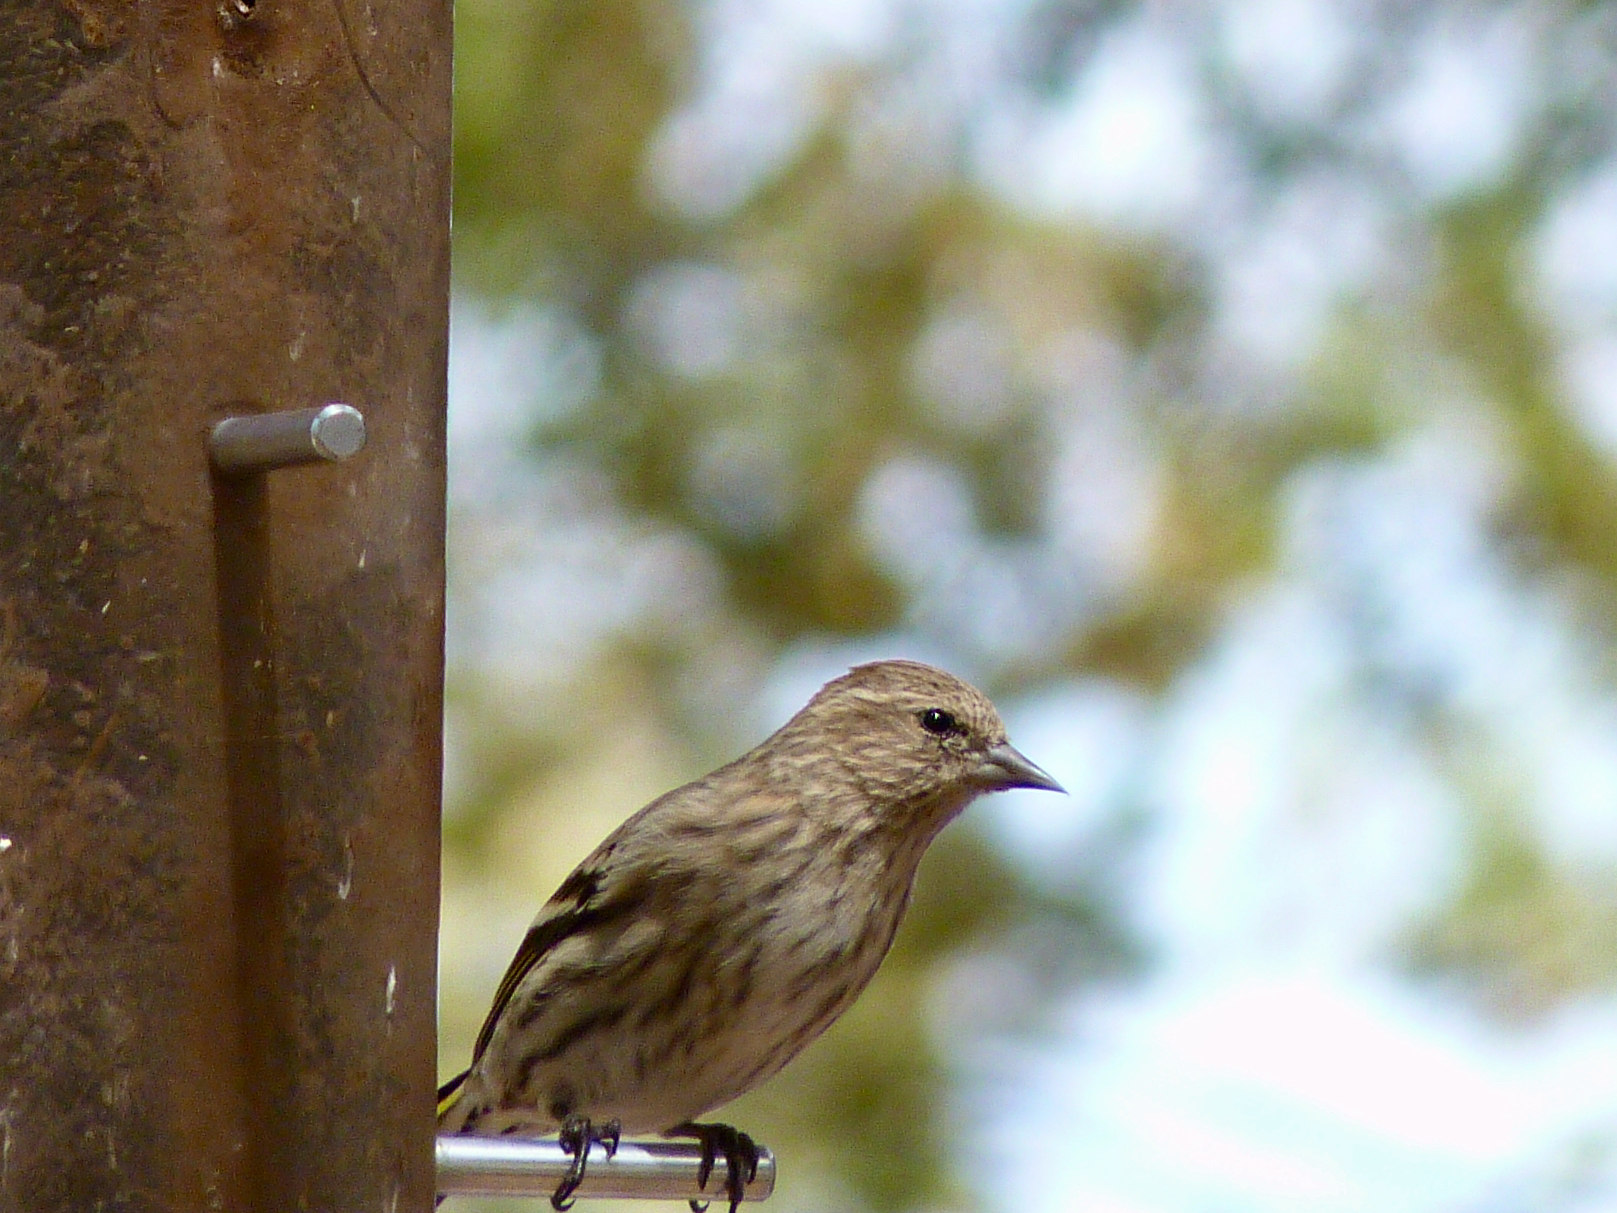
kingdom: Animalia
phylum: Chordata
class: Aves
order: Passeriformes
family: Fringillidae
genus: Spinus
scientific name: Spinus pinus
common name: Pine siskin
